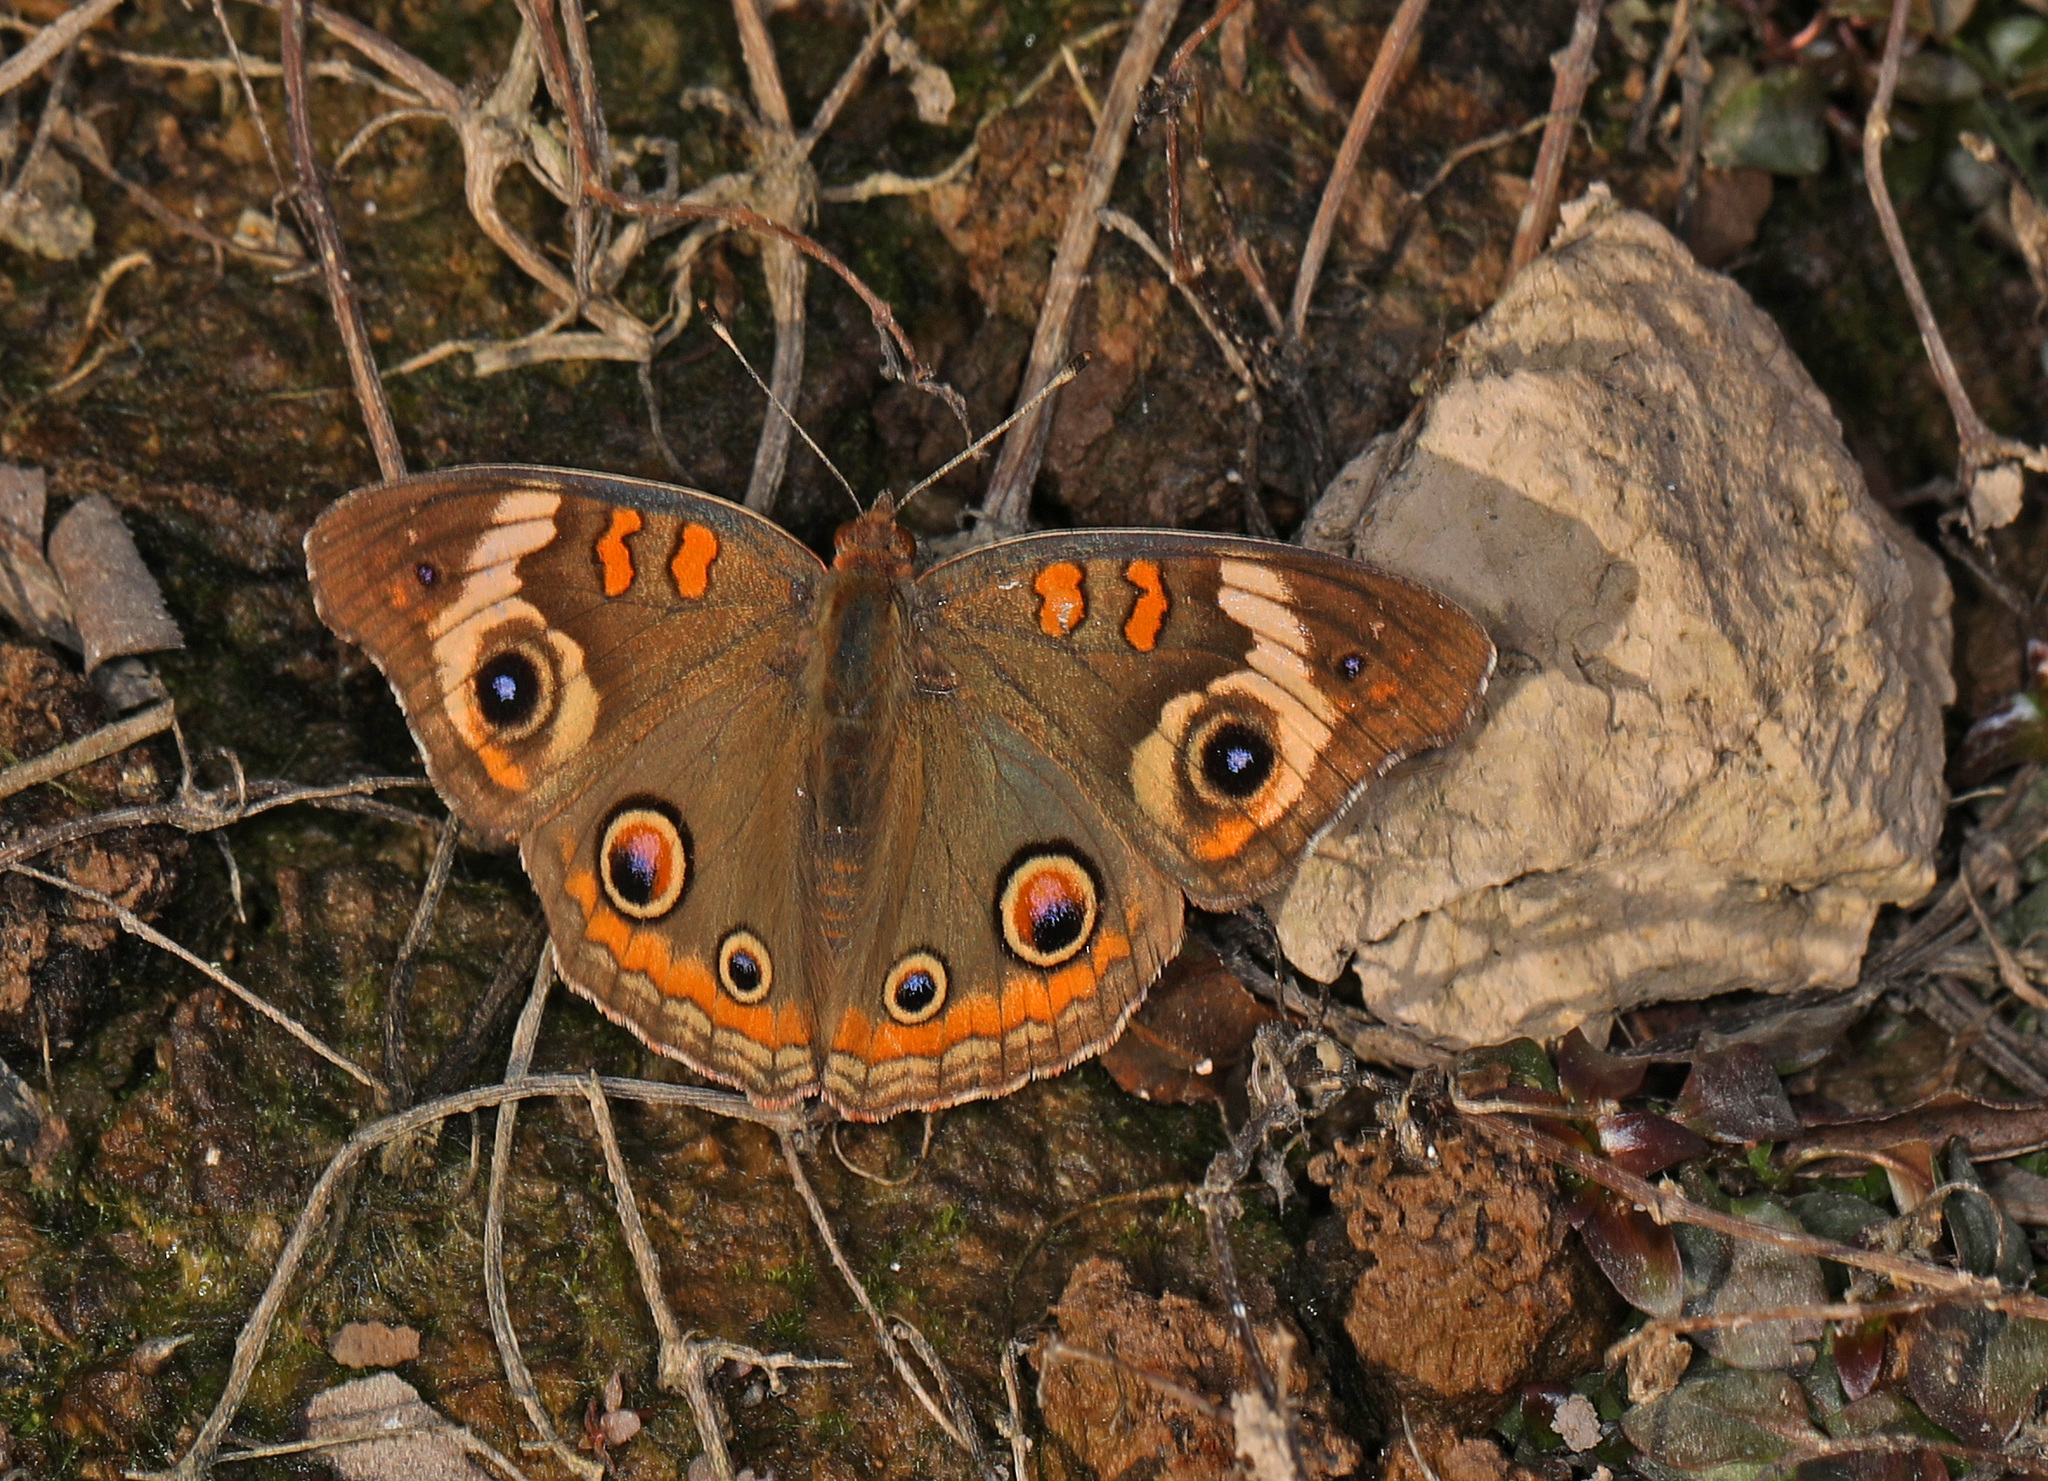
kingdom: Animalia
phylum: Arthropoda
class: Insecta
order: Lepidoptera
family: Nymphalidae
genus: Junonia
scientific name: Junonia coenia
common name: Common buckeye
